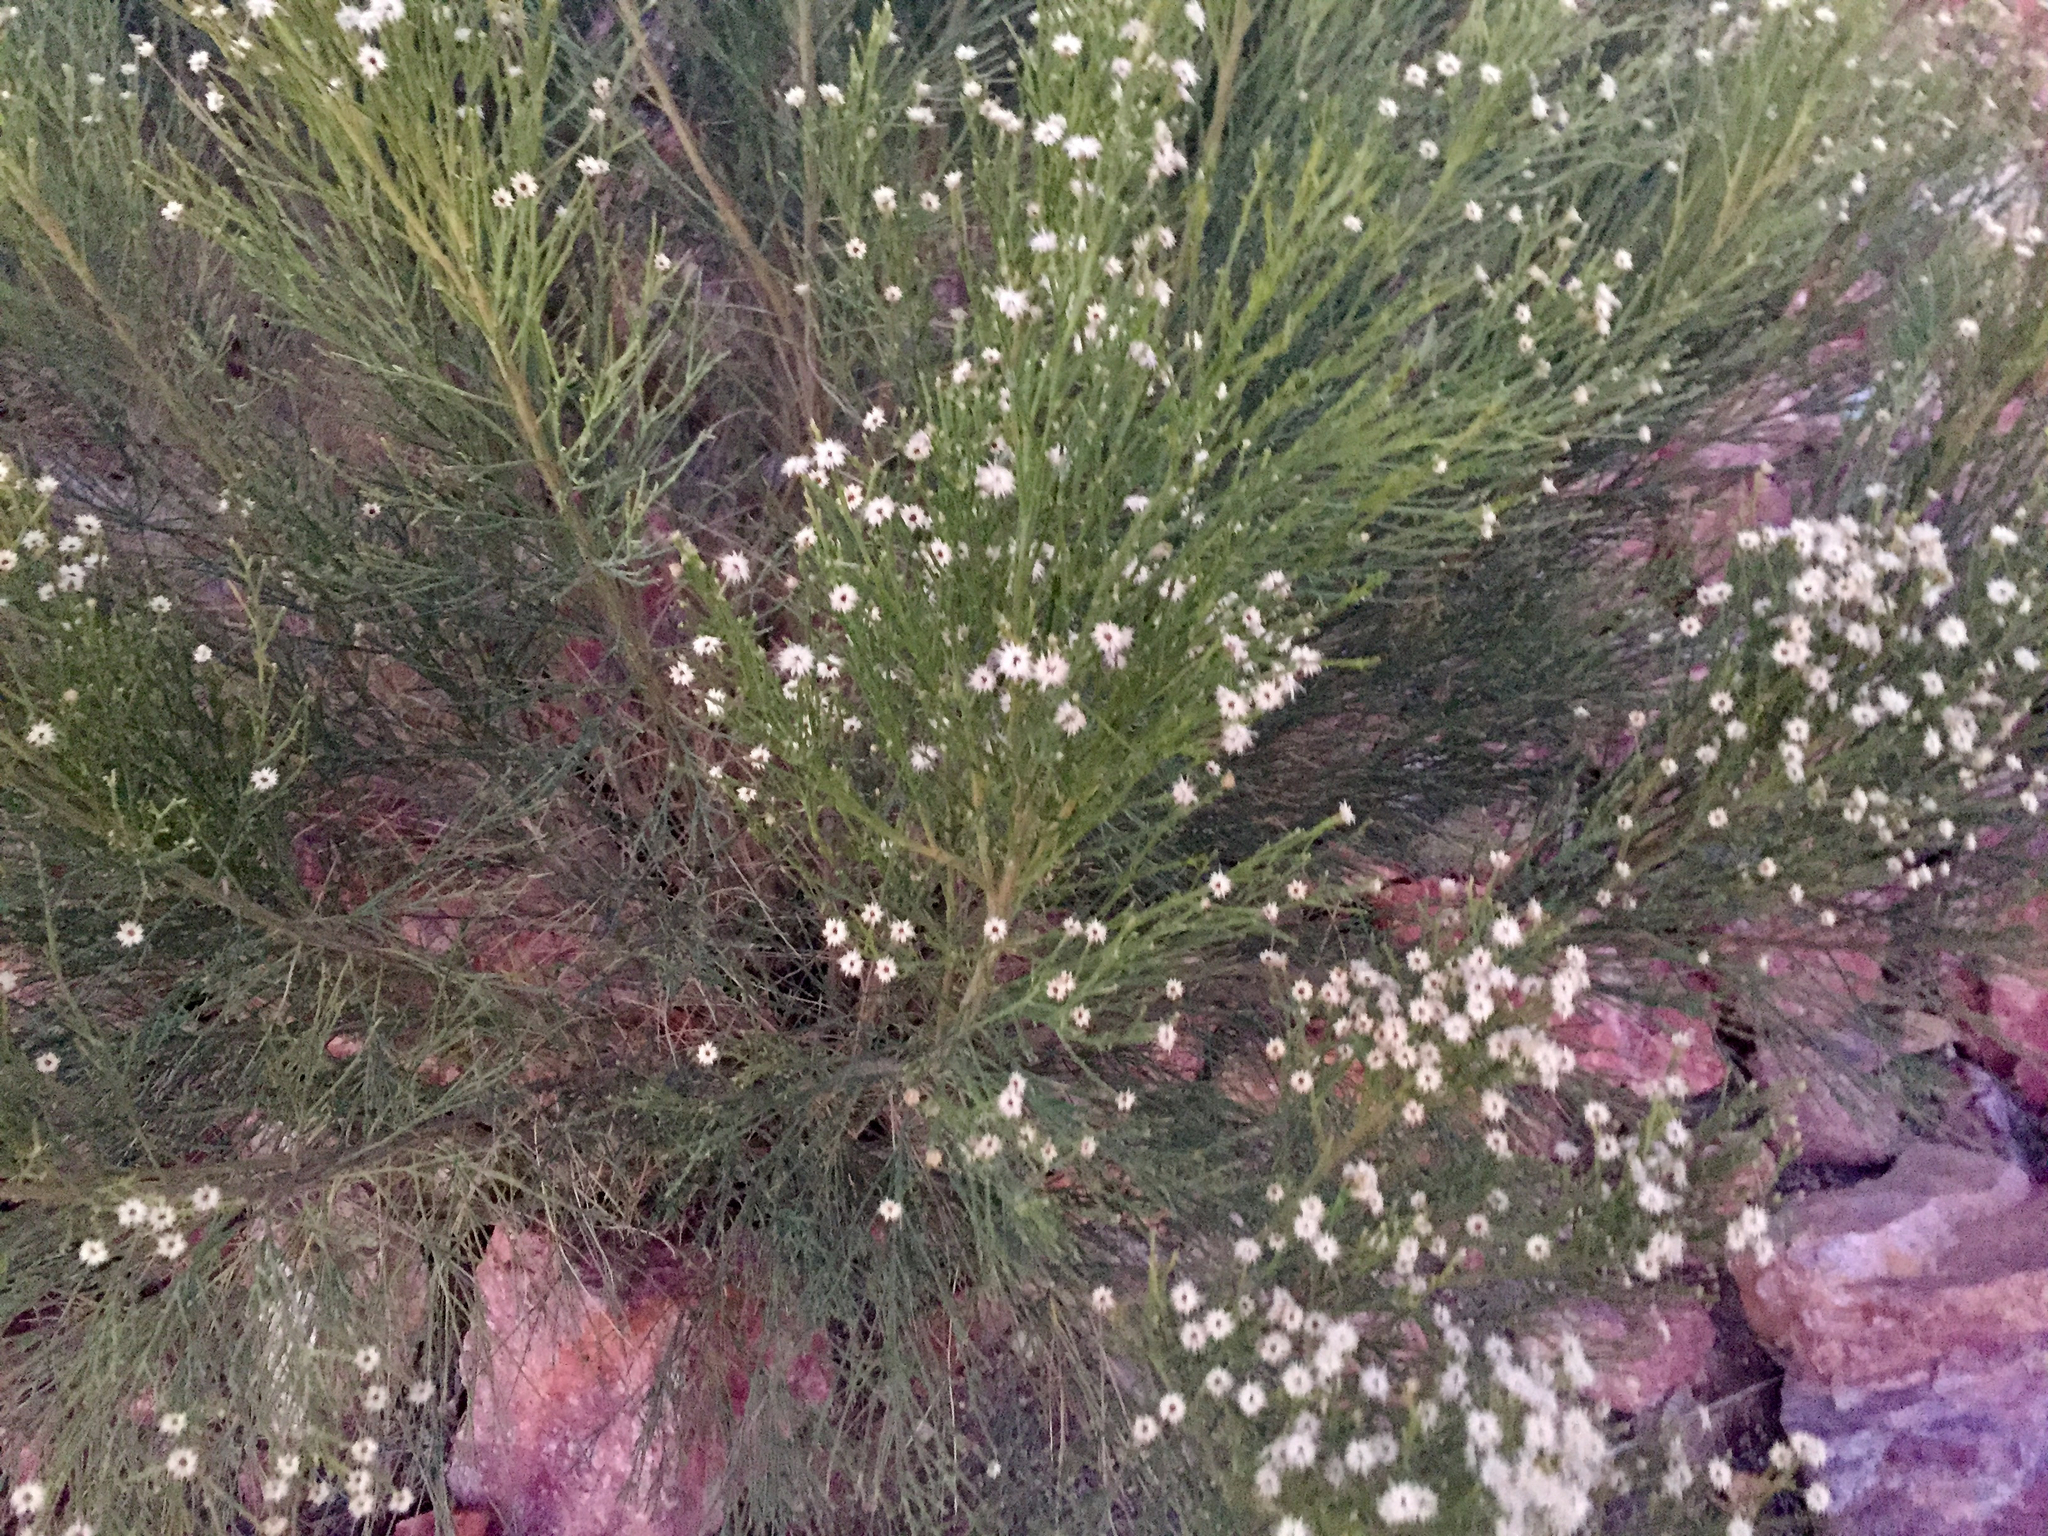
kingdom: Plantae
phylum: Tracheophyta
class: Magnoliopsida
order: Asterales
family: Asteraceae
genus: Baccharis
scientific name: Baccharis sarothroides
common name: Desert-broom
